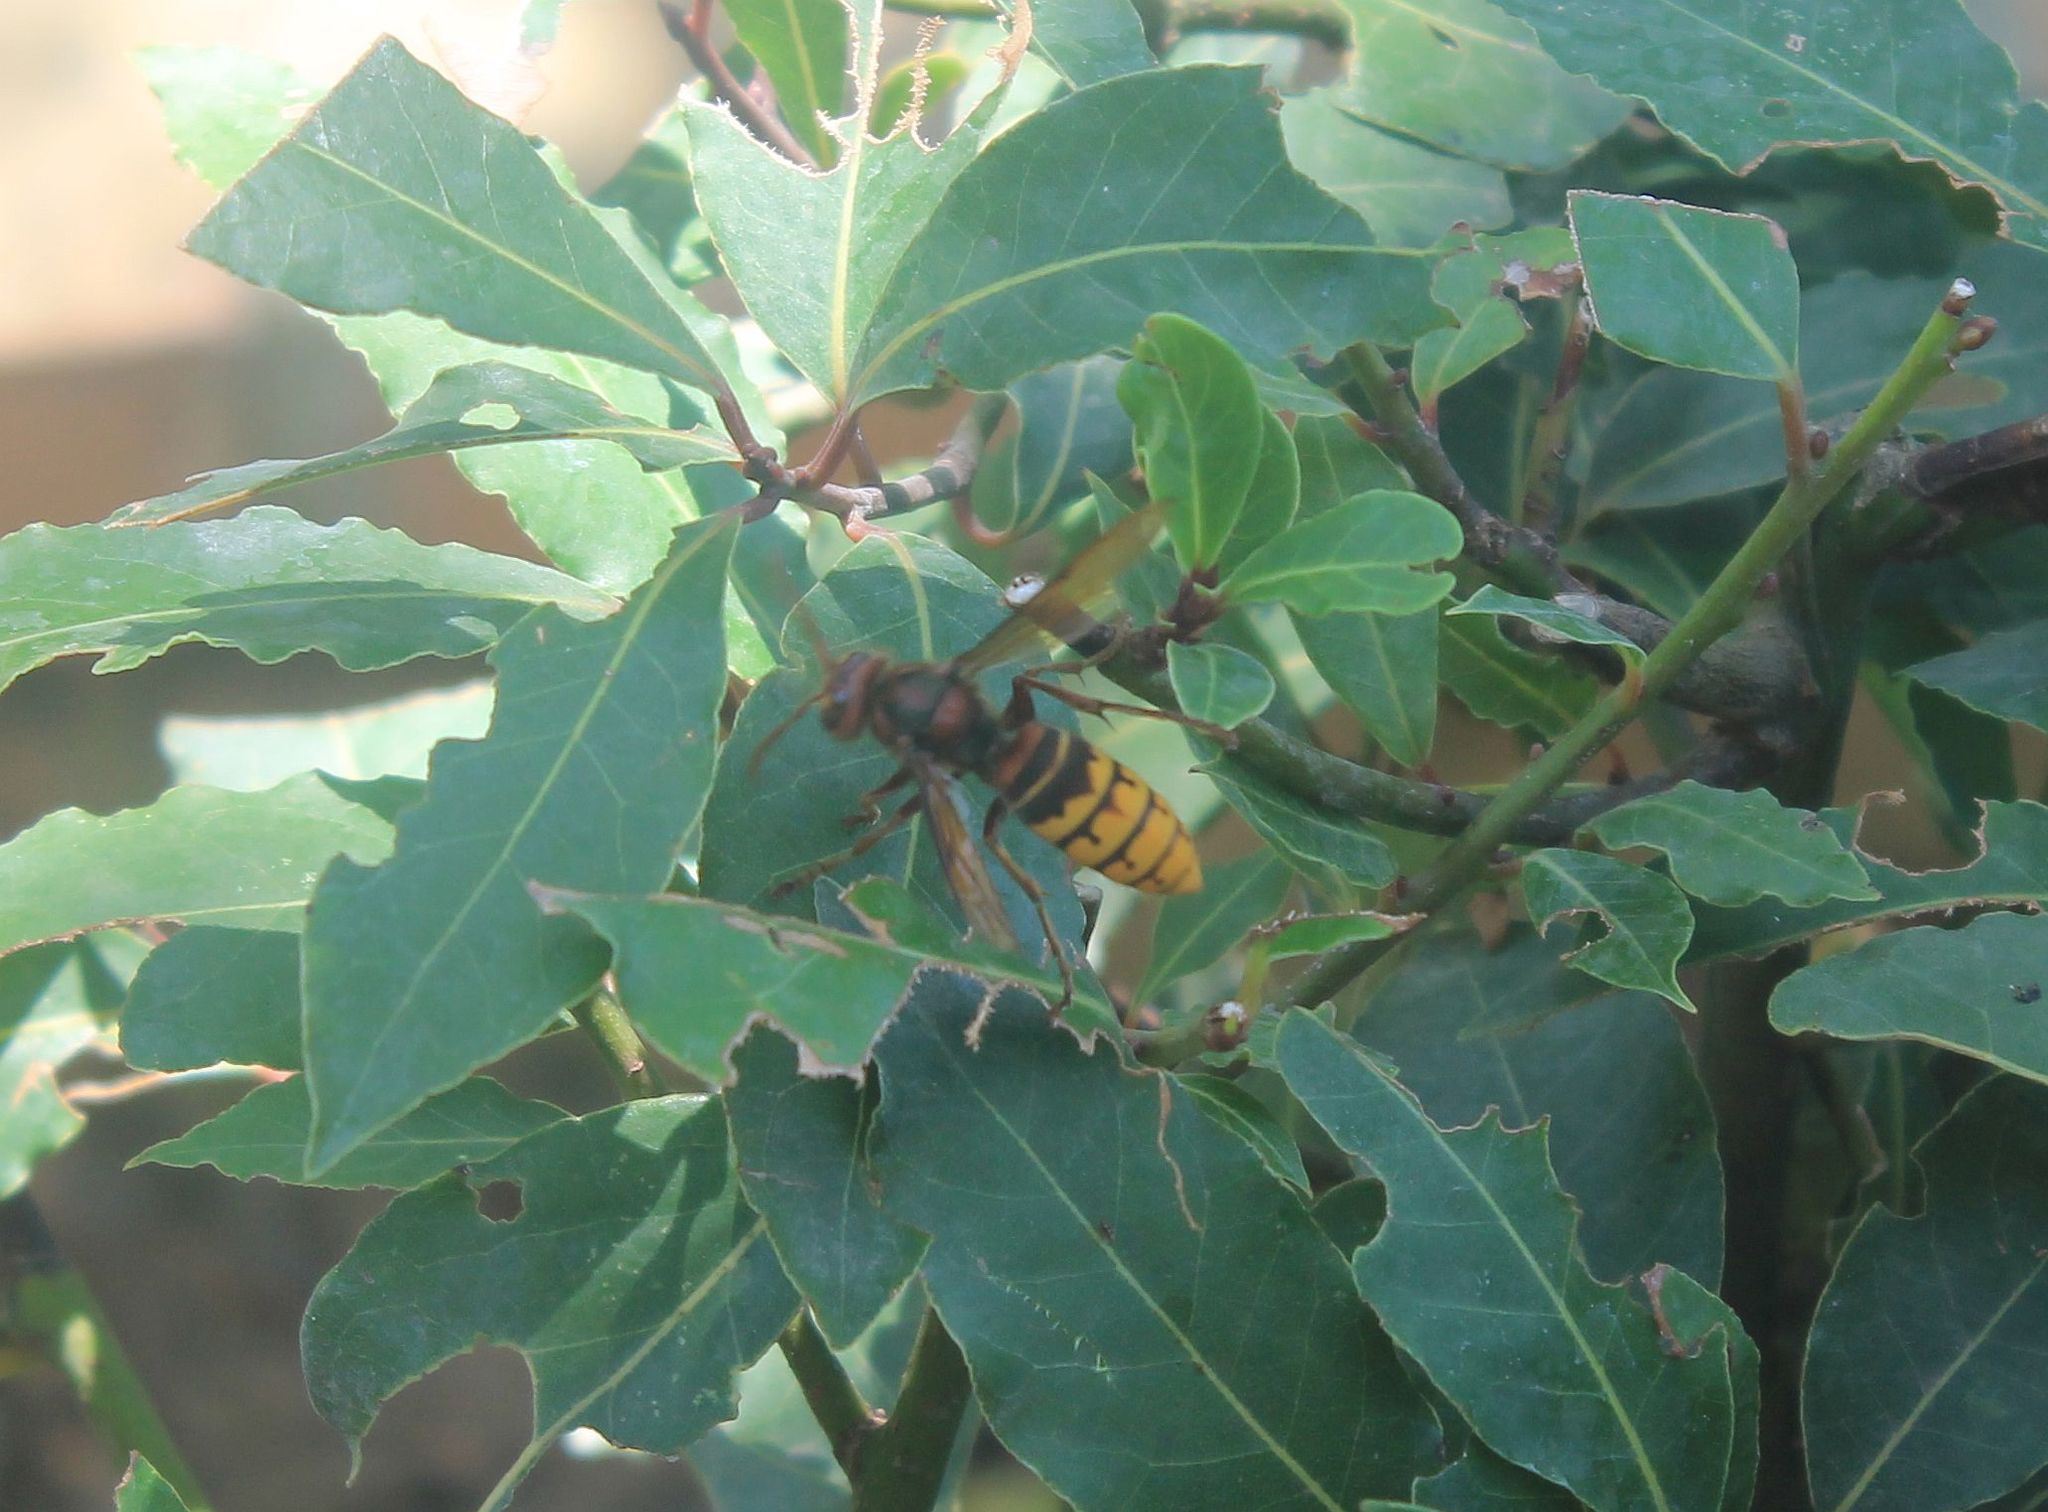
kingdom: Animalia
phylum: Arthropoda
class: Insecta
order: Hymenoptera
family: Vespidae
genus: Vespa
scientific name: Vespa crabro
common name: Hornet
